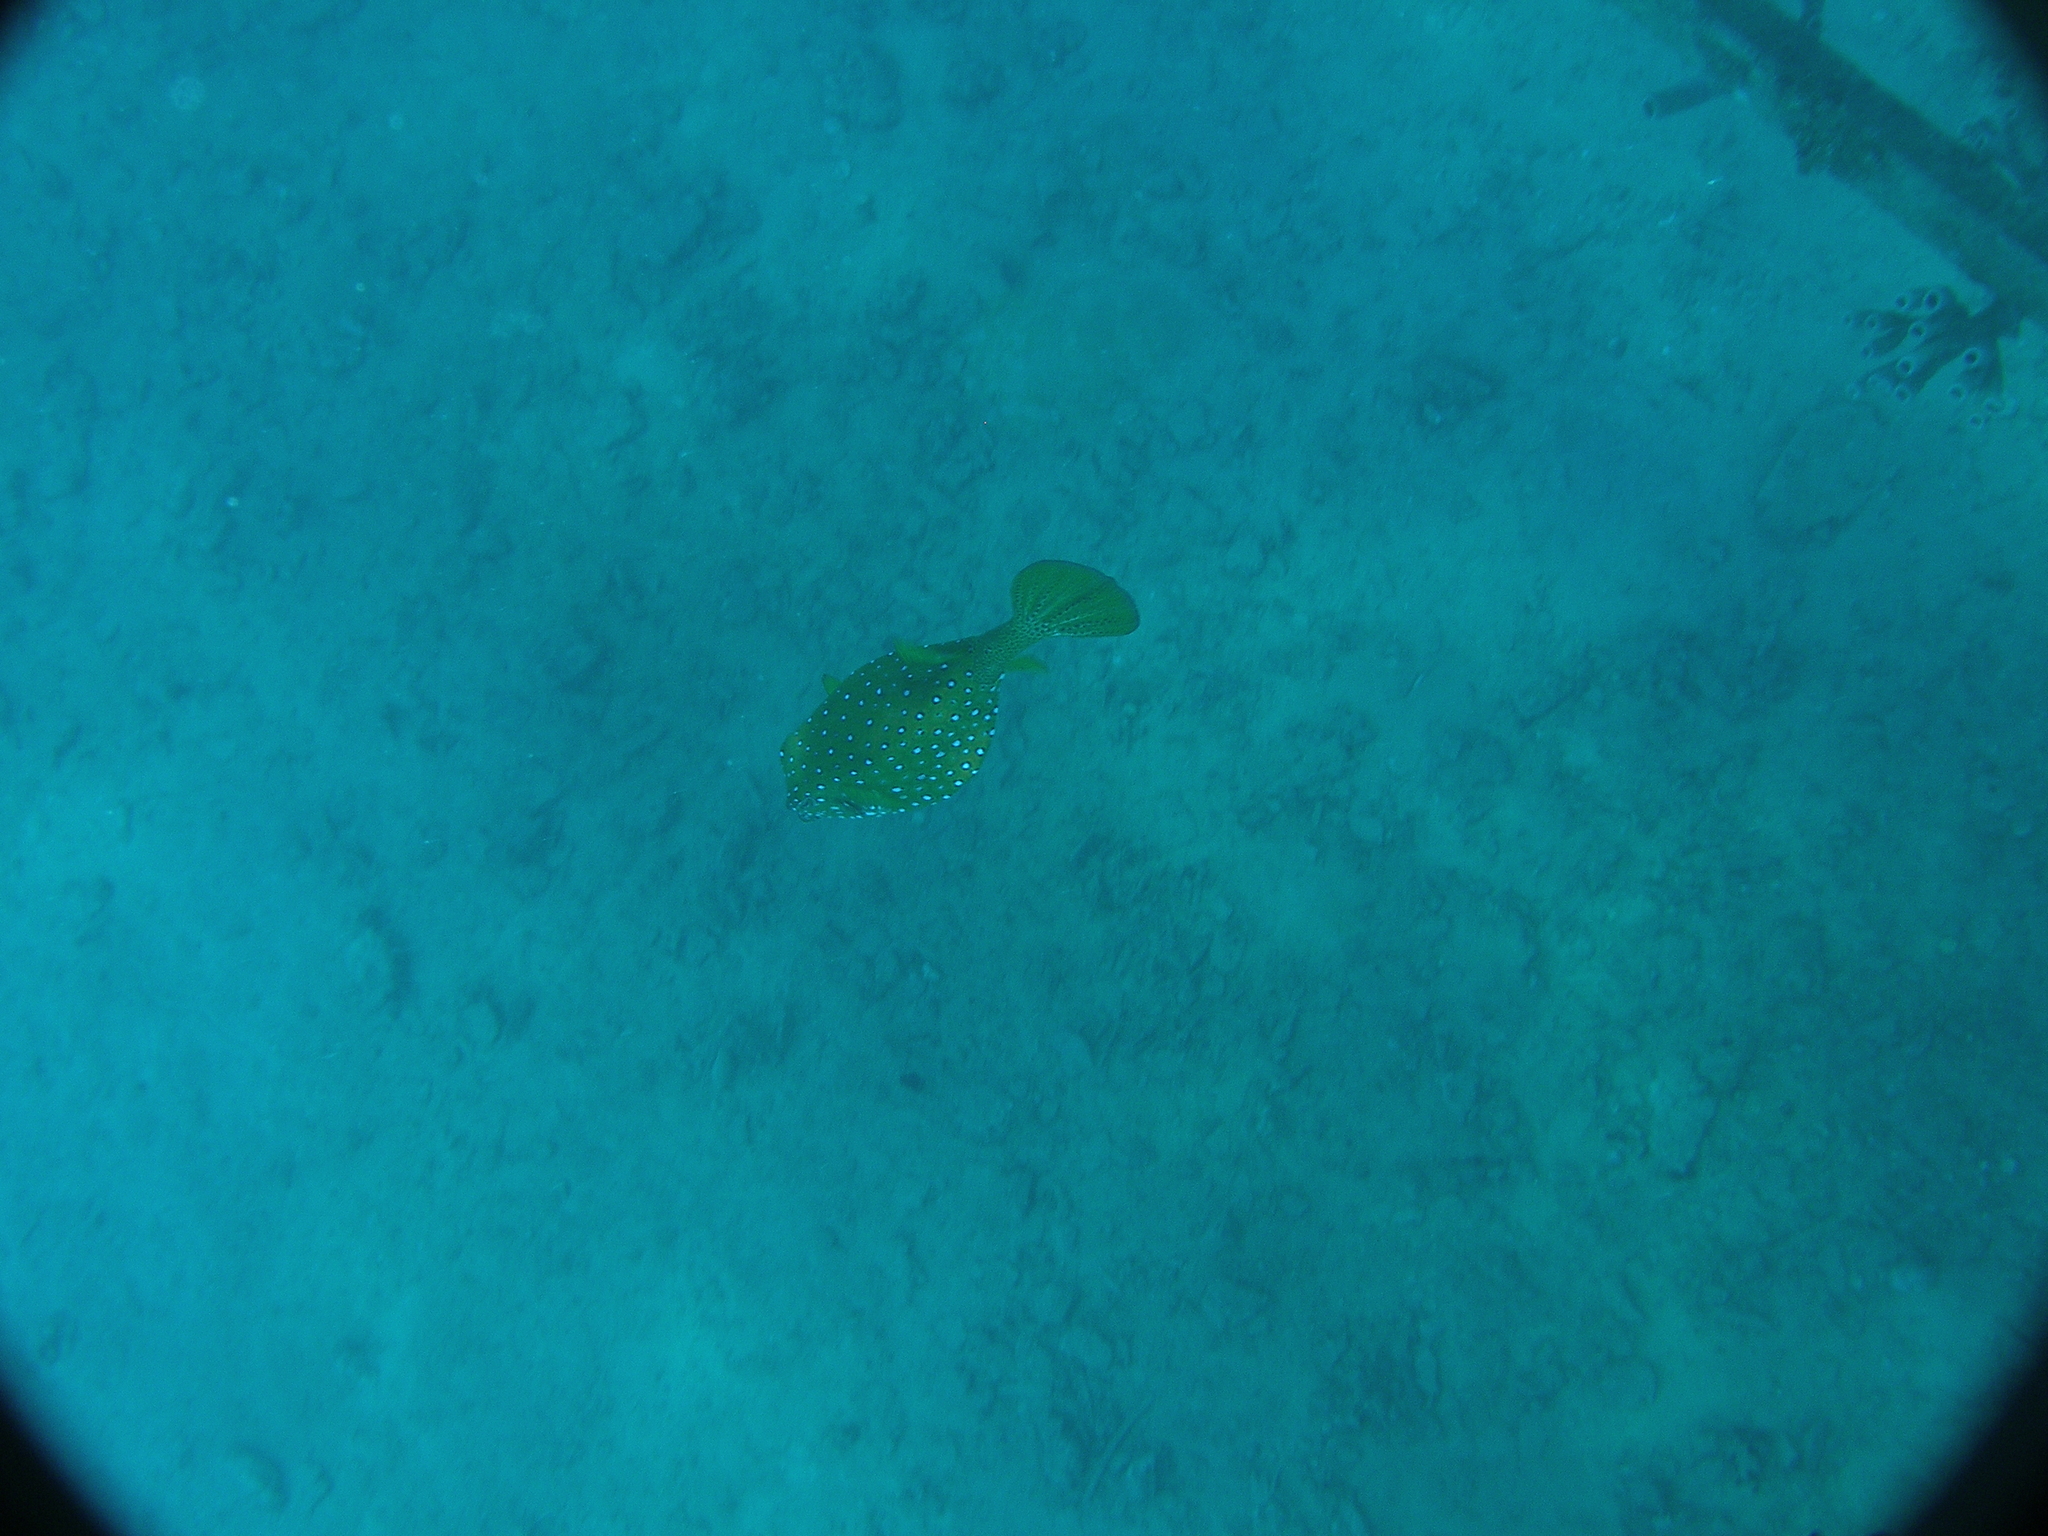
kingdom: Animalia
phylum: Chordata
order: Tetraodontiformes
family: Ostraciidae
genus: Ostracion
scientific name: Ostracion cubicus
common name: Cube trunkfish
